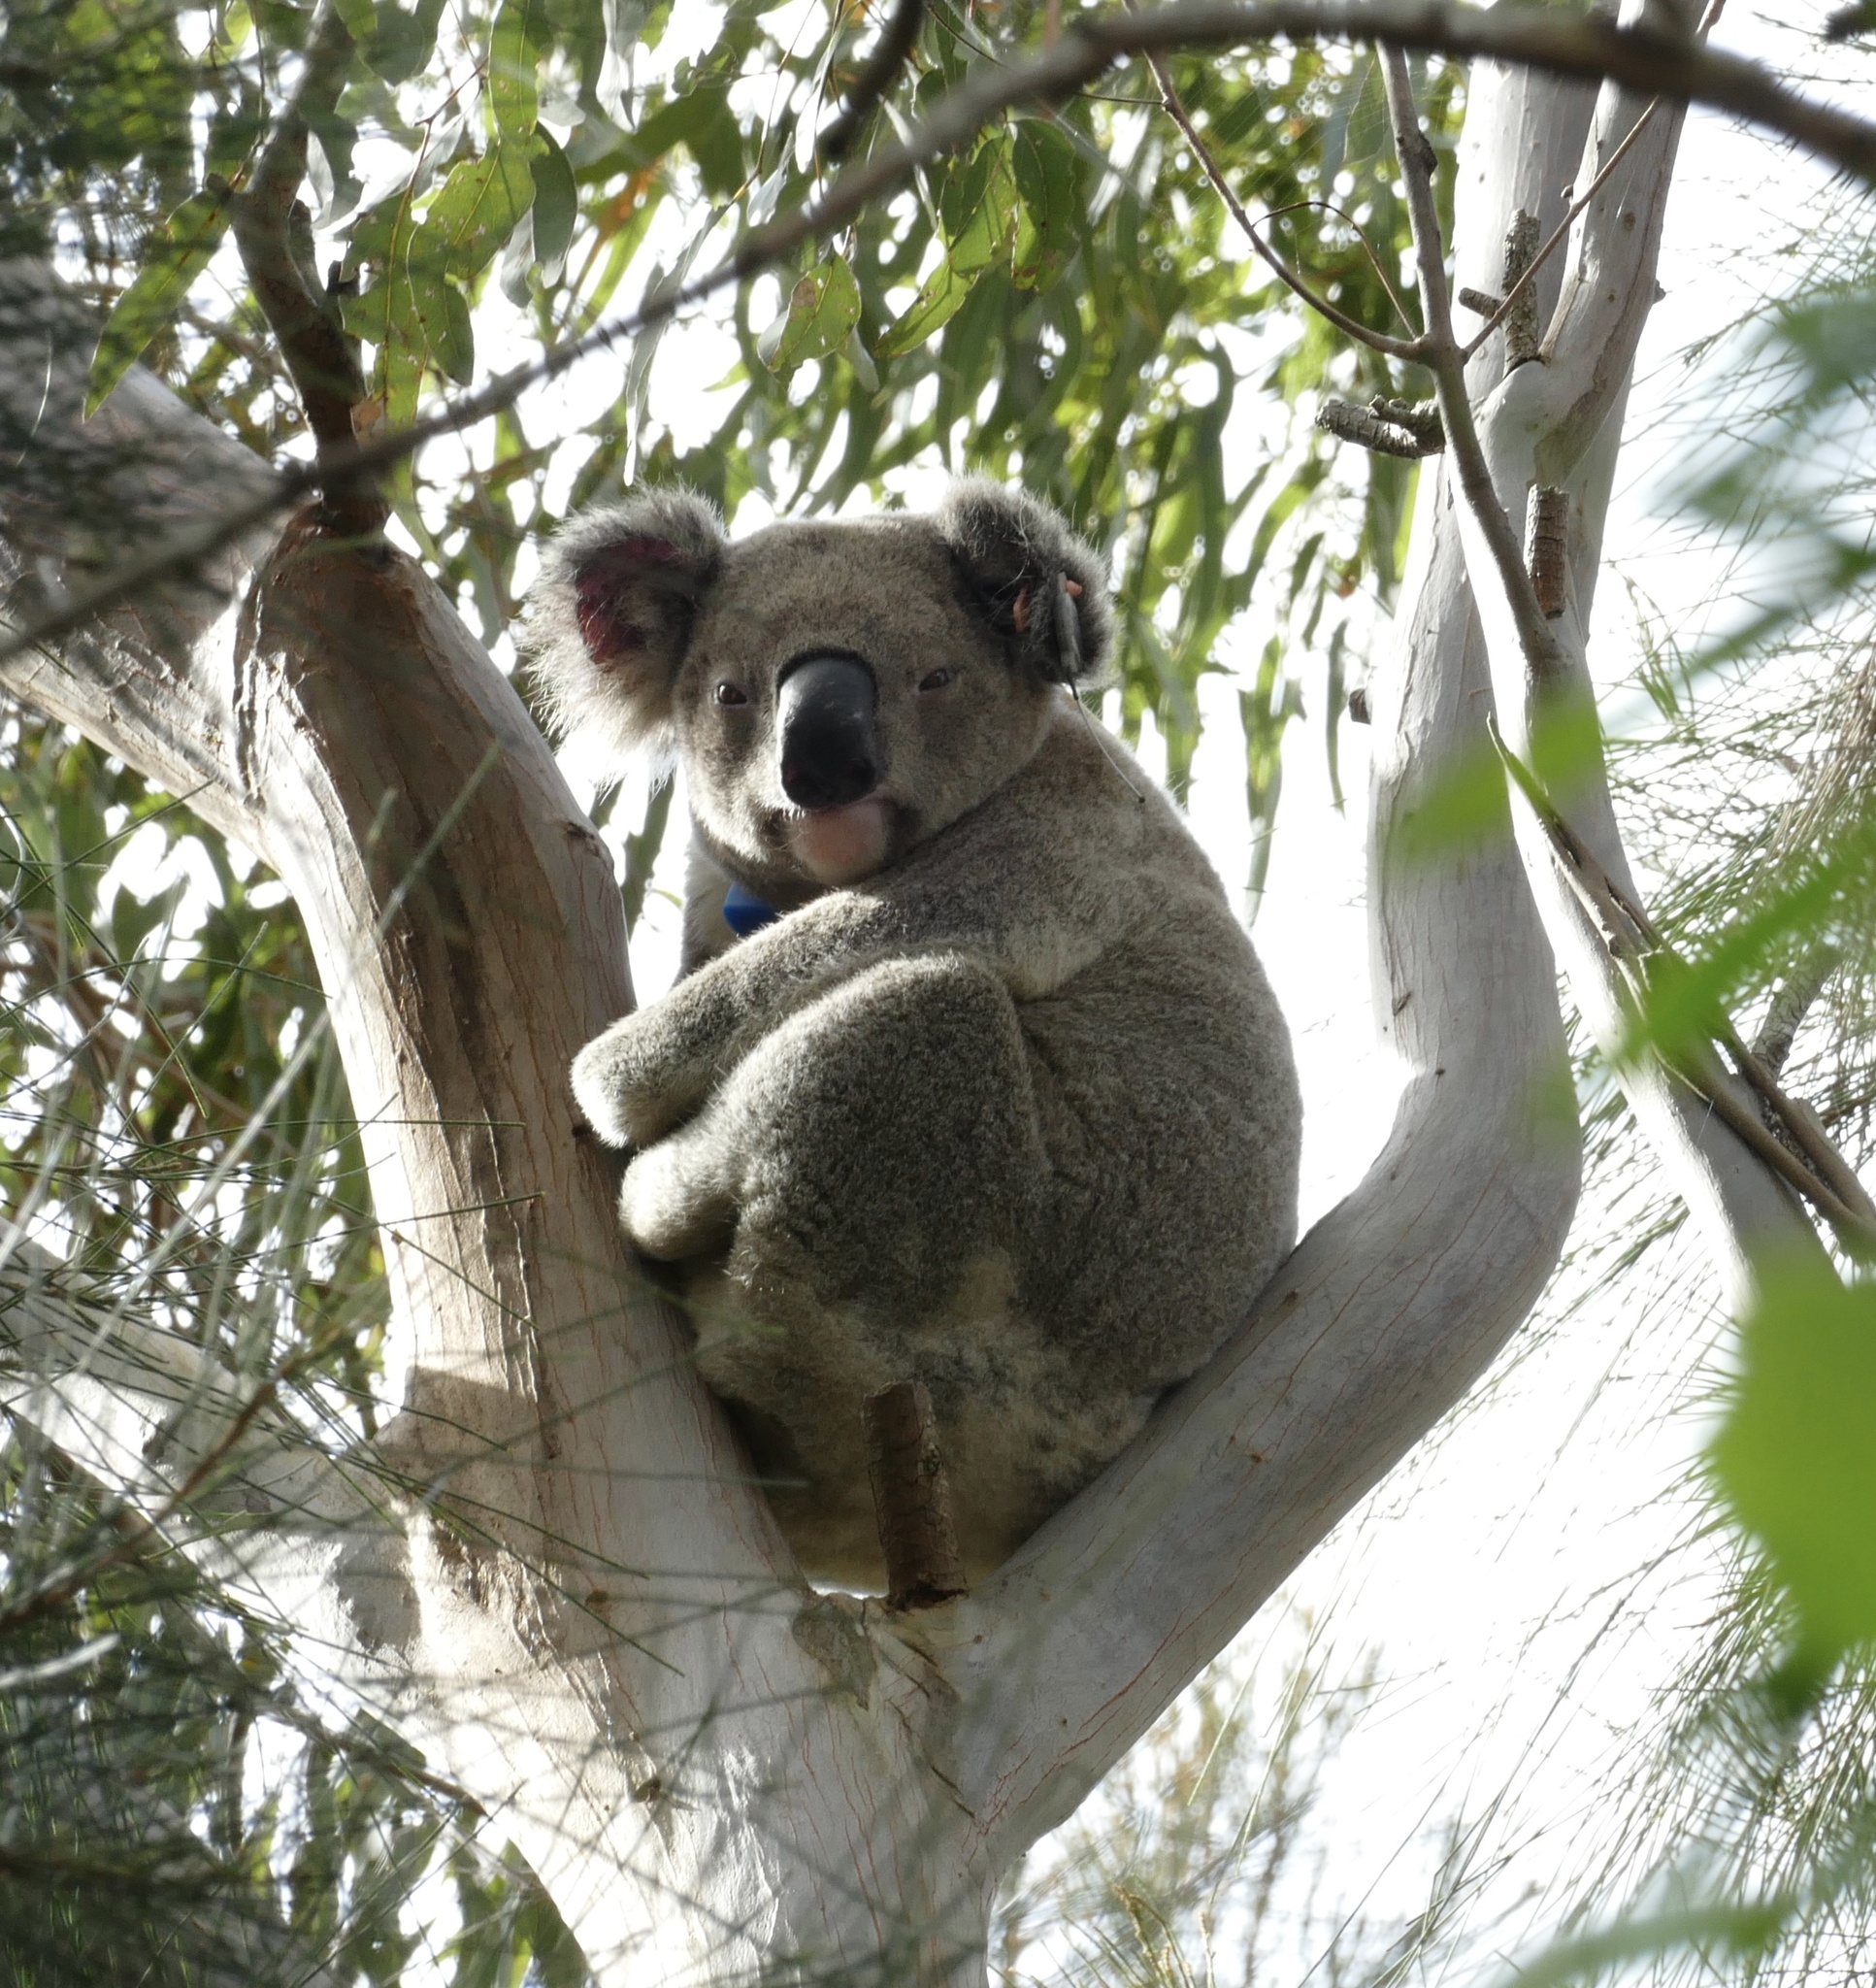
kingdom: Animalia
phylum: Chordata
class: Mammalia
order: Diprotodontia
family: Phascolarctidae
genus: Phascolarctos
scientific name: Phascolarctos cinereus
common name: Koala
